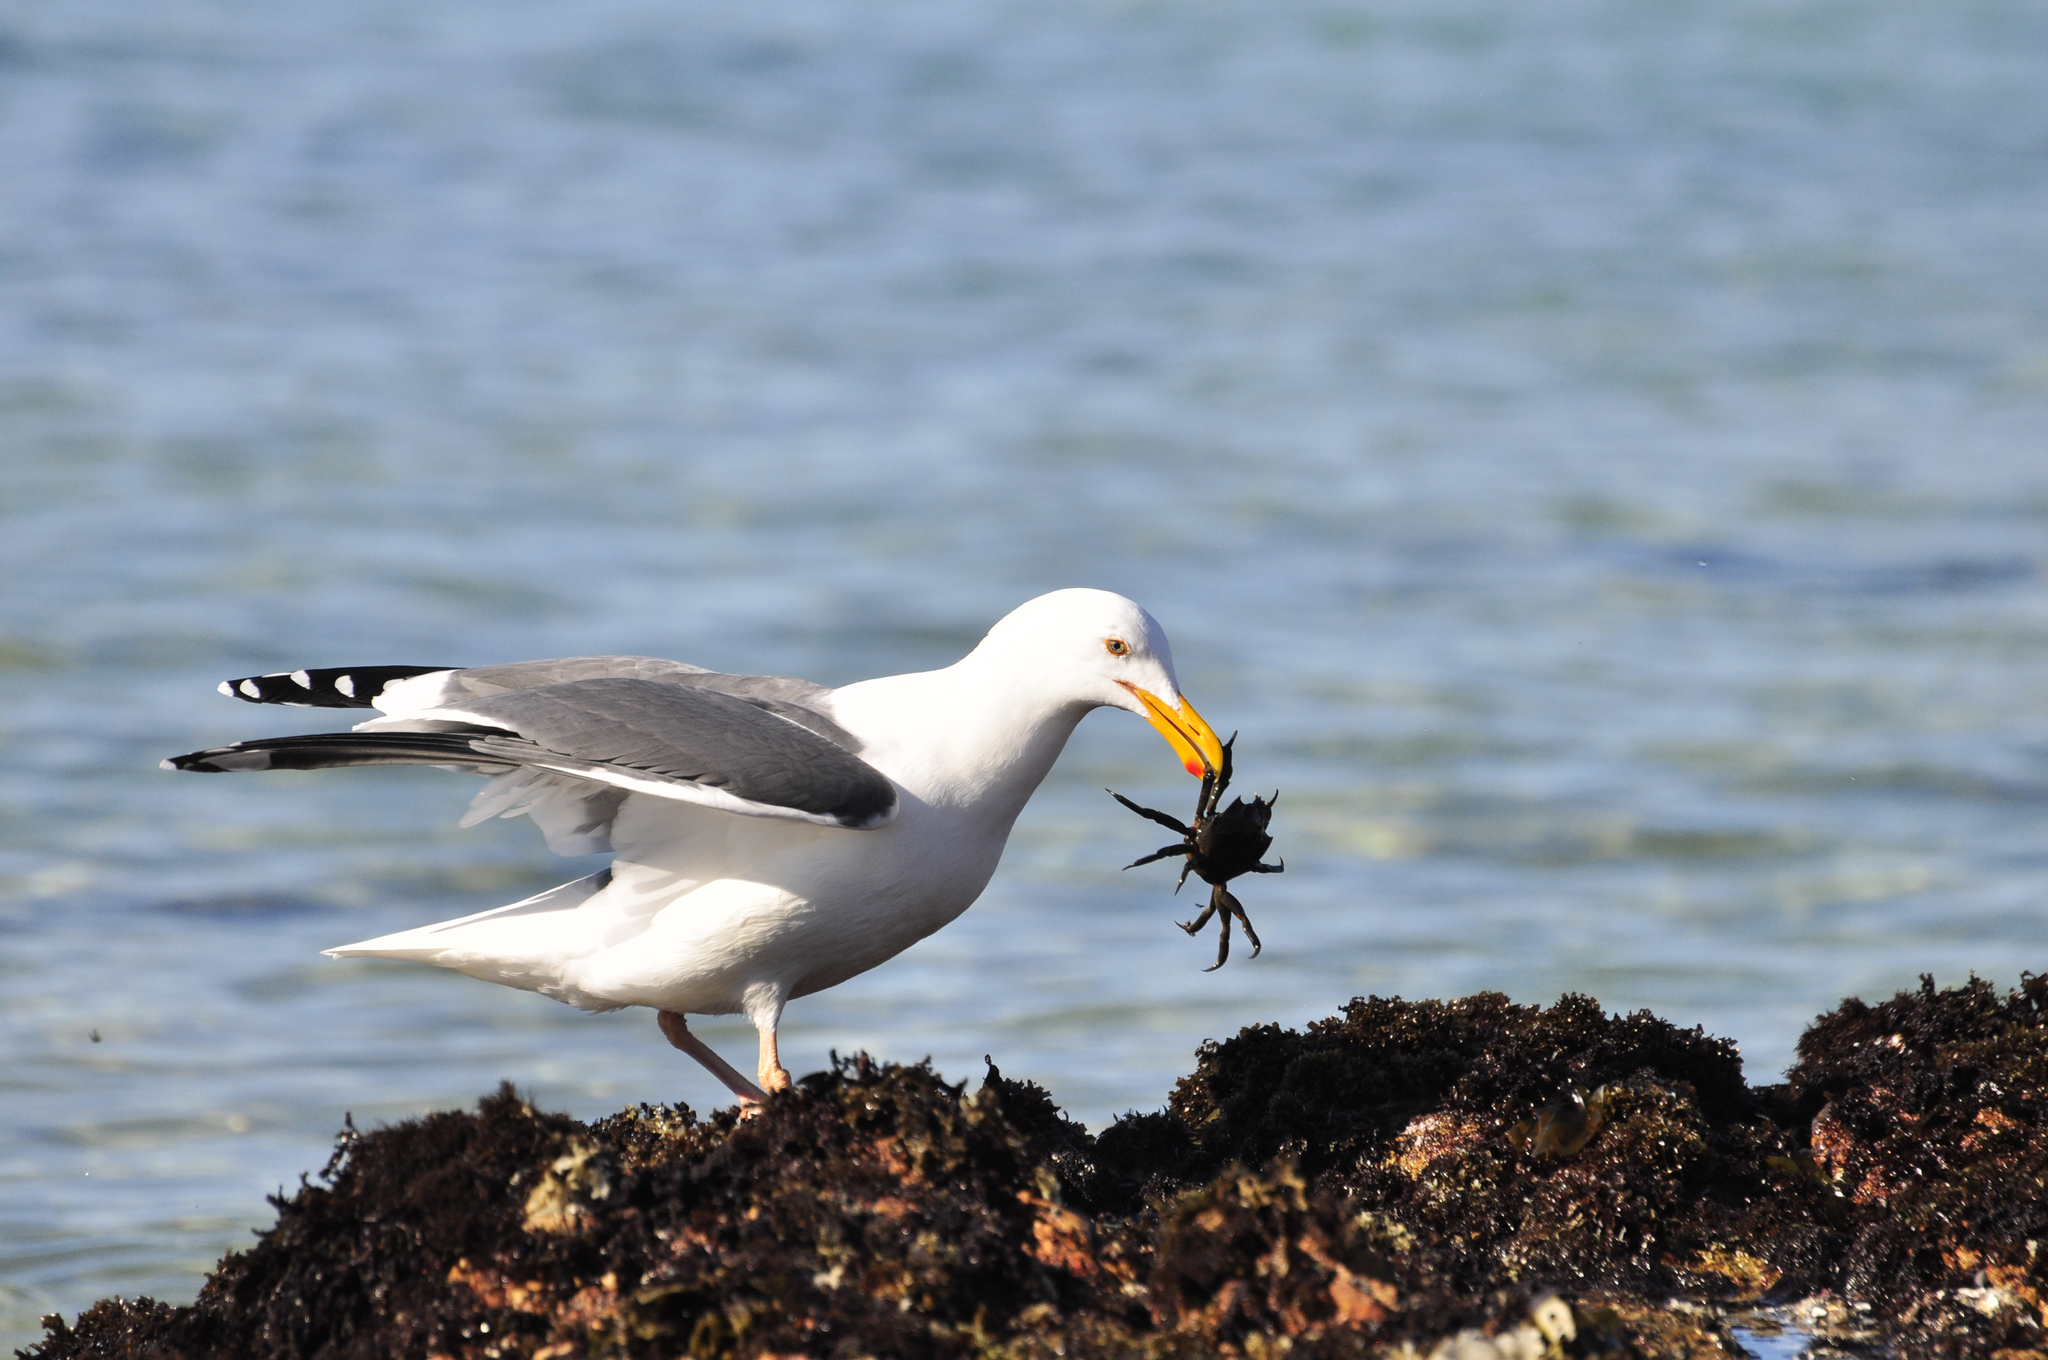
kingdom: Animalia
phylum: Chordata
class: Aves
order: Charadriiformes
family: Laridae
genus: Larus
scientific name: Larus occidentalis
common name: Western gull
